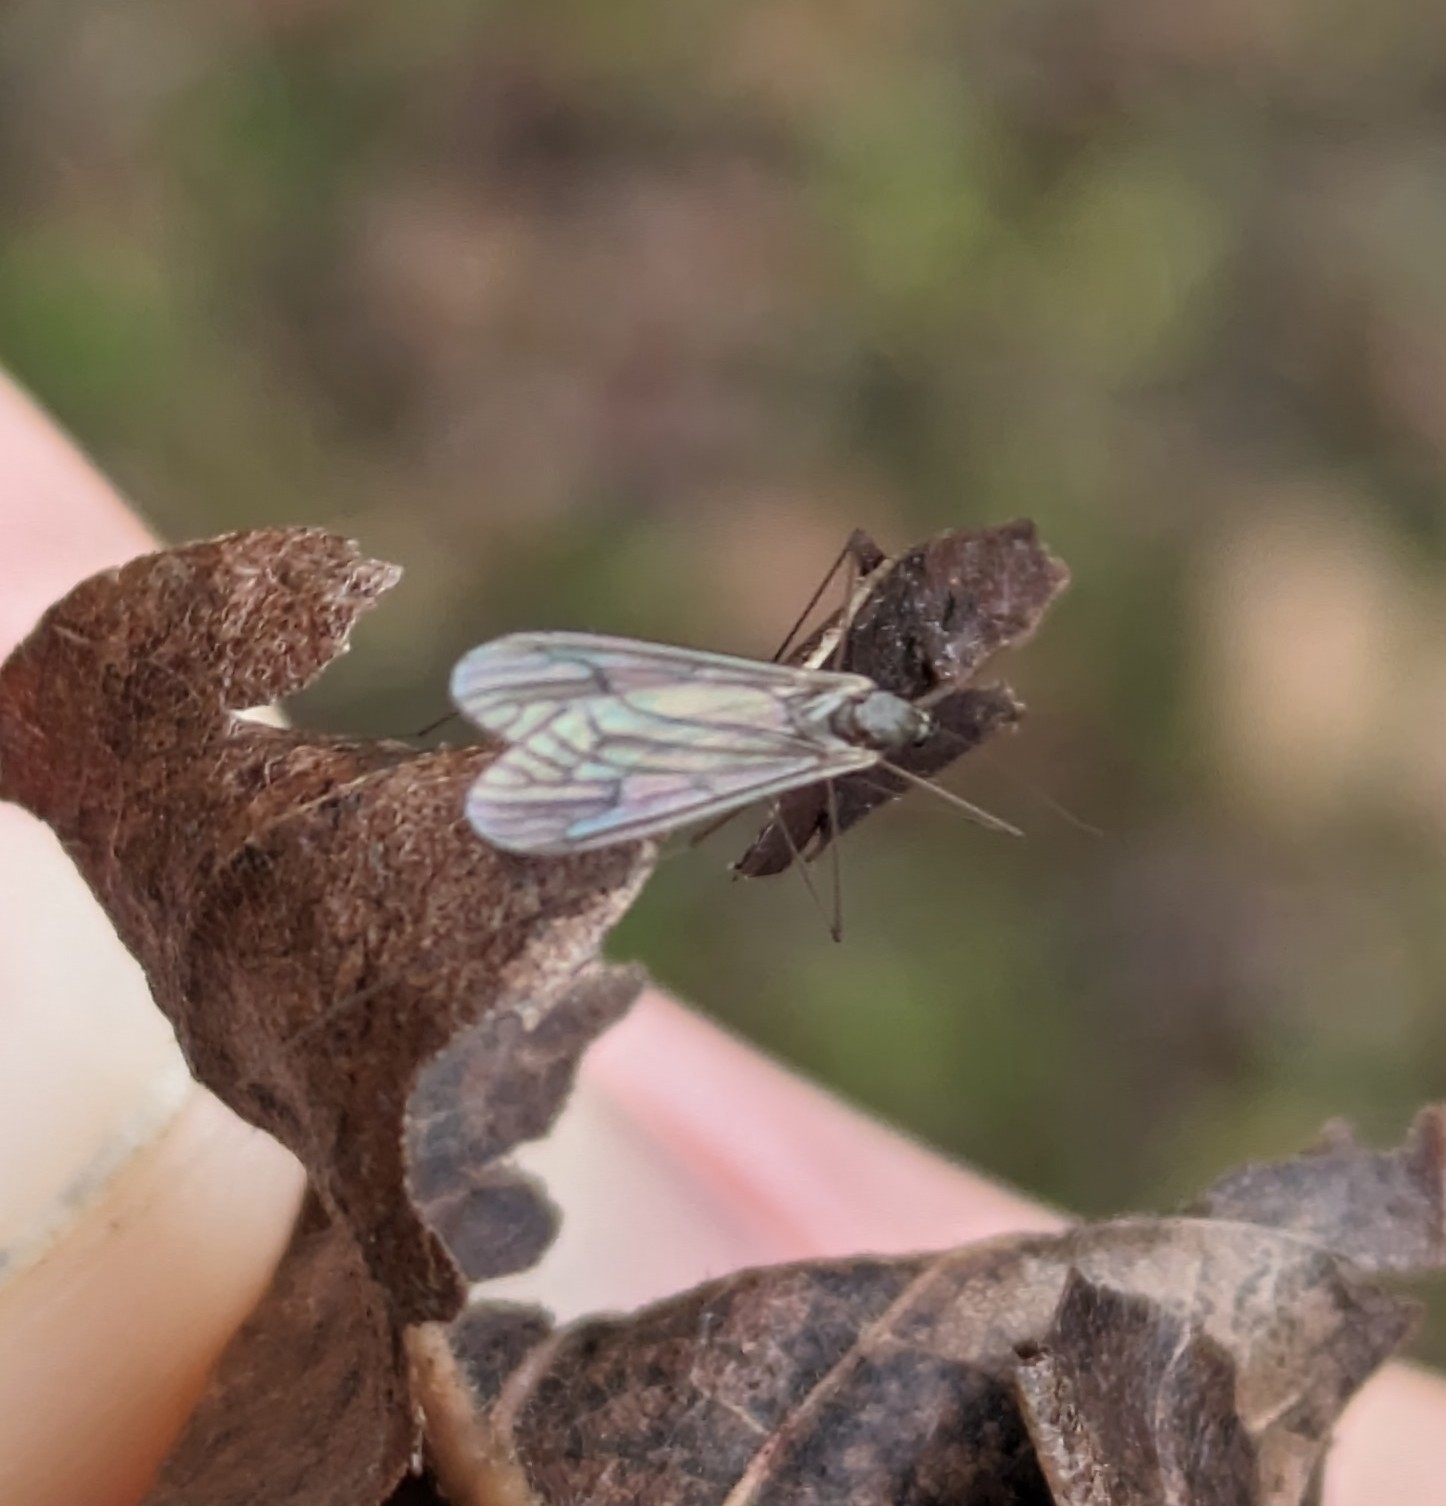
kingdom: Animalia
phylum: Arthropoda
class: Insecta
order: Diptera
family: Trichoceridae
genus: Trichocera
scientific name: Trichocera bimacula
